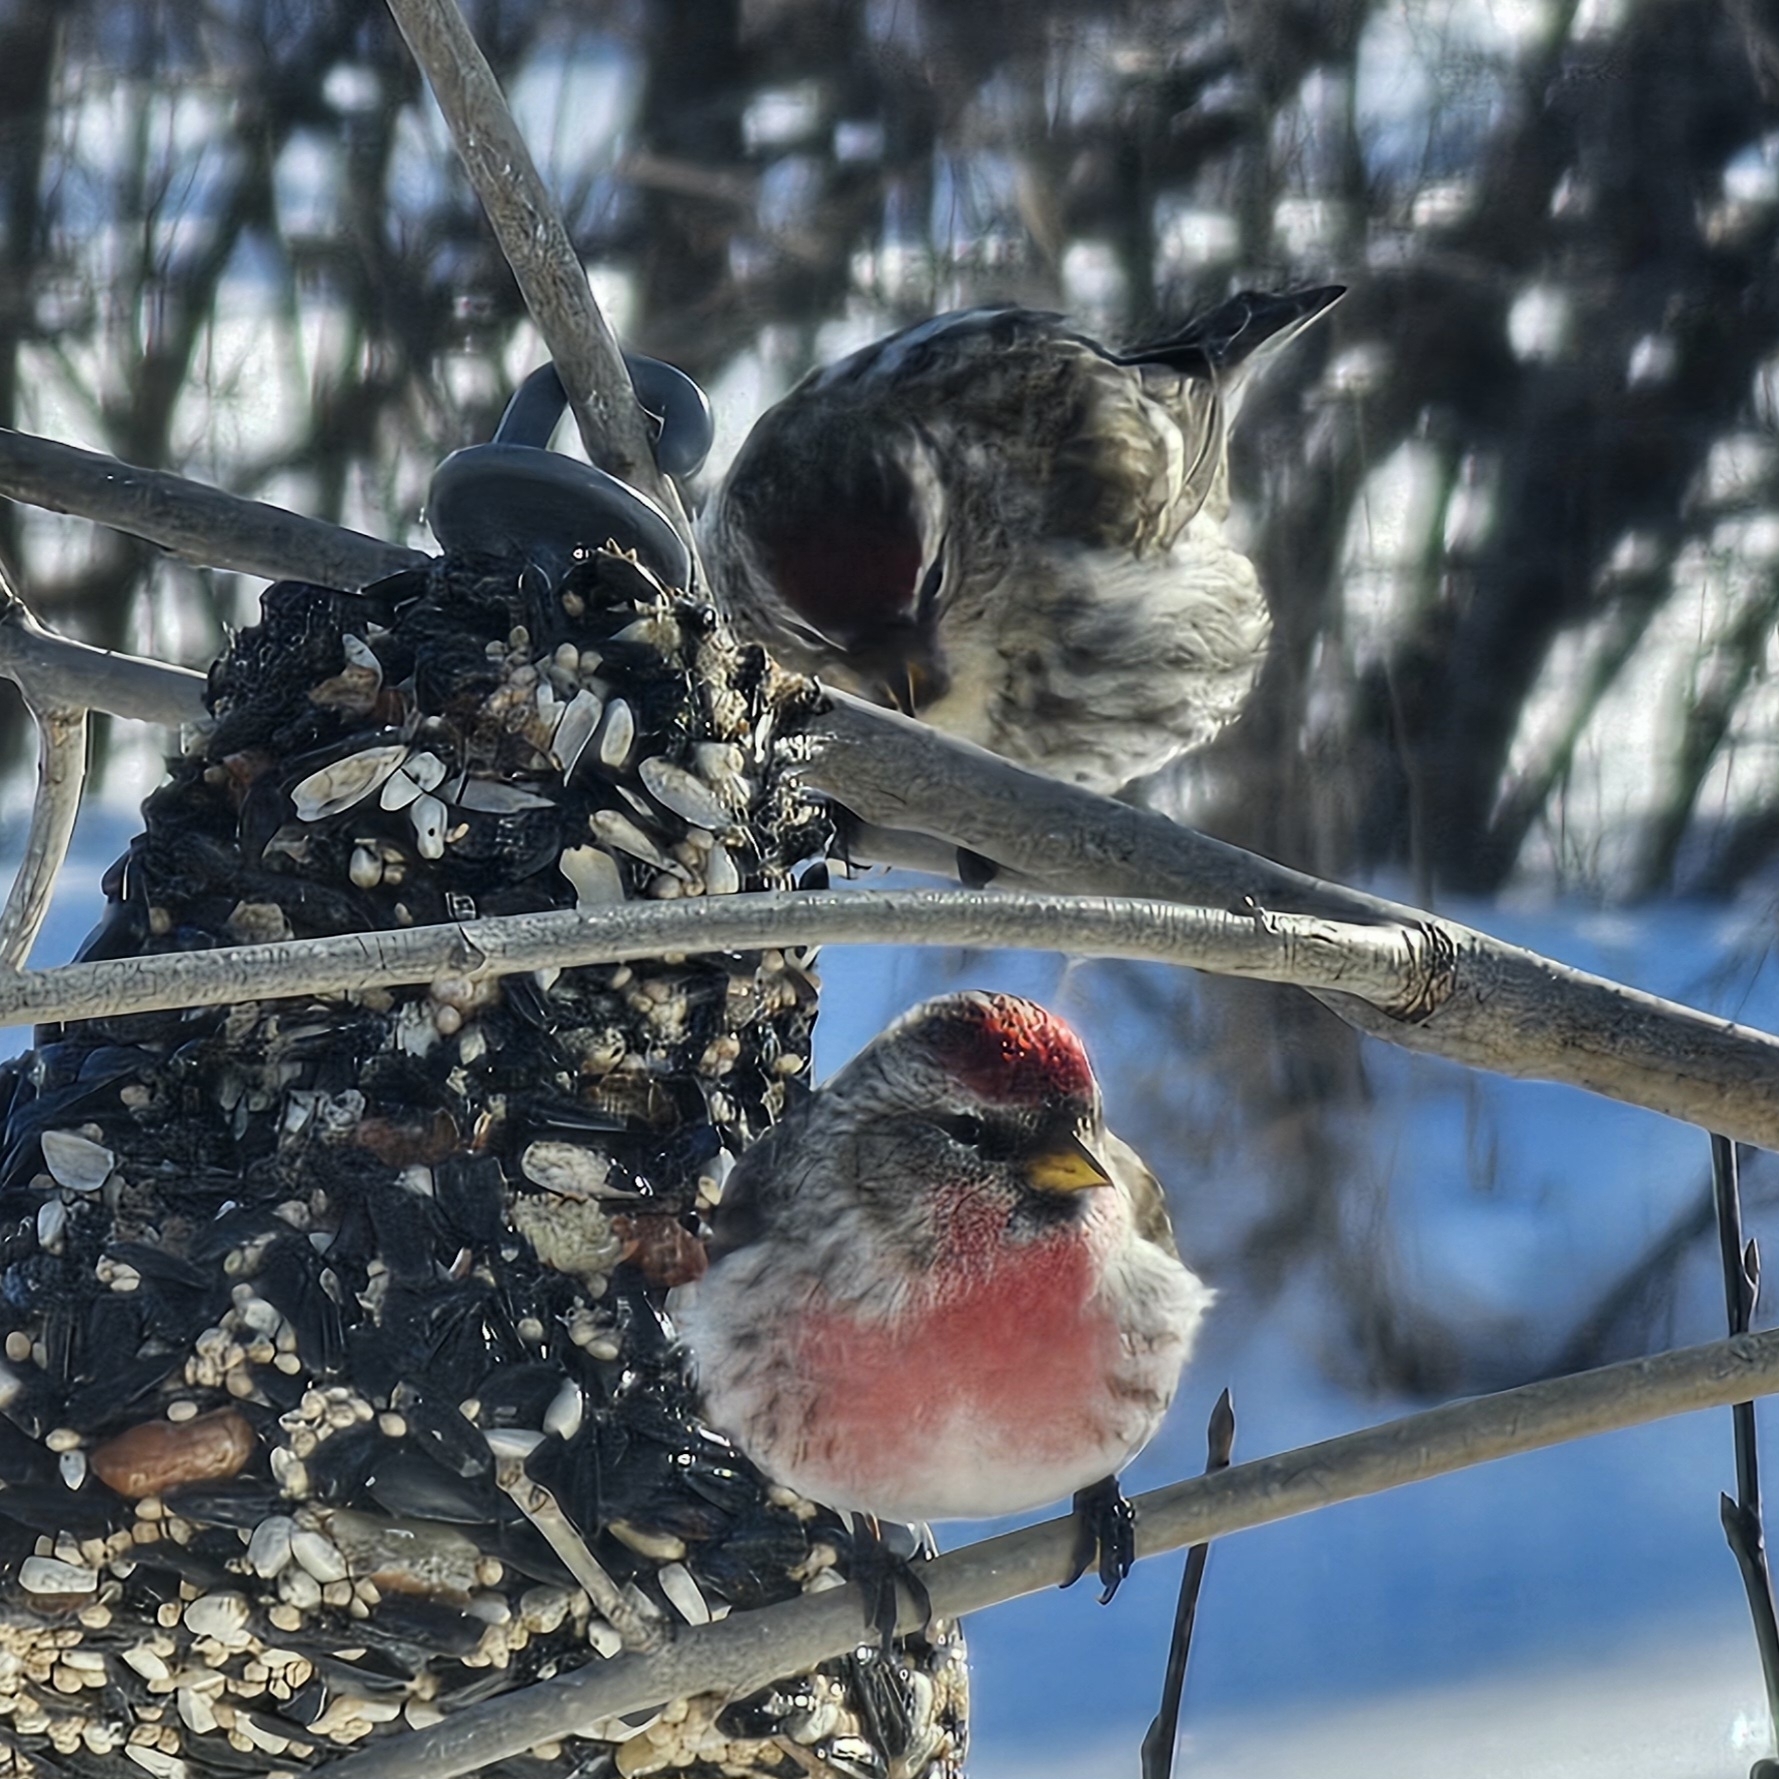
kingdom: Animalia
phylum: Chordata
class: Aves
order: Passeriformes
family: Fringillidae
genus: Acanthis
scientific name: Acanthis flammea
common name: Common redpoll
